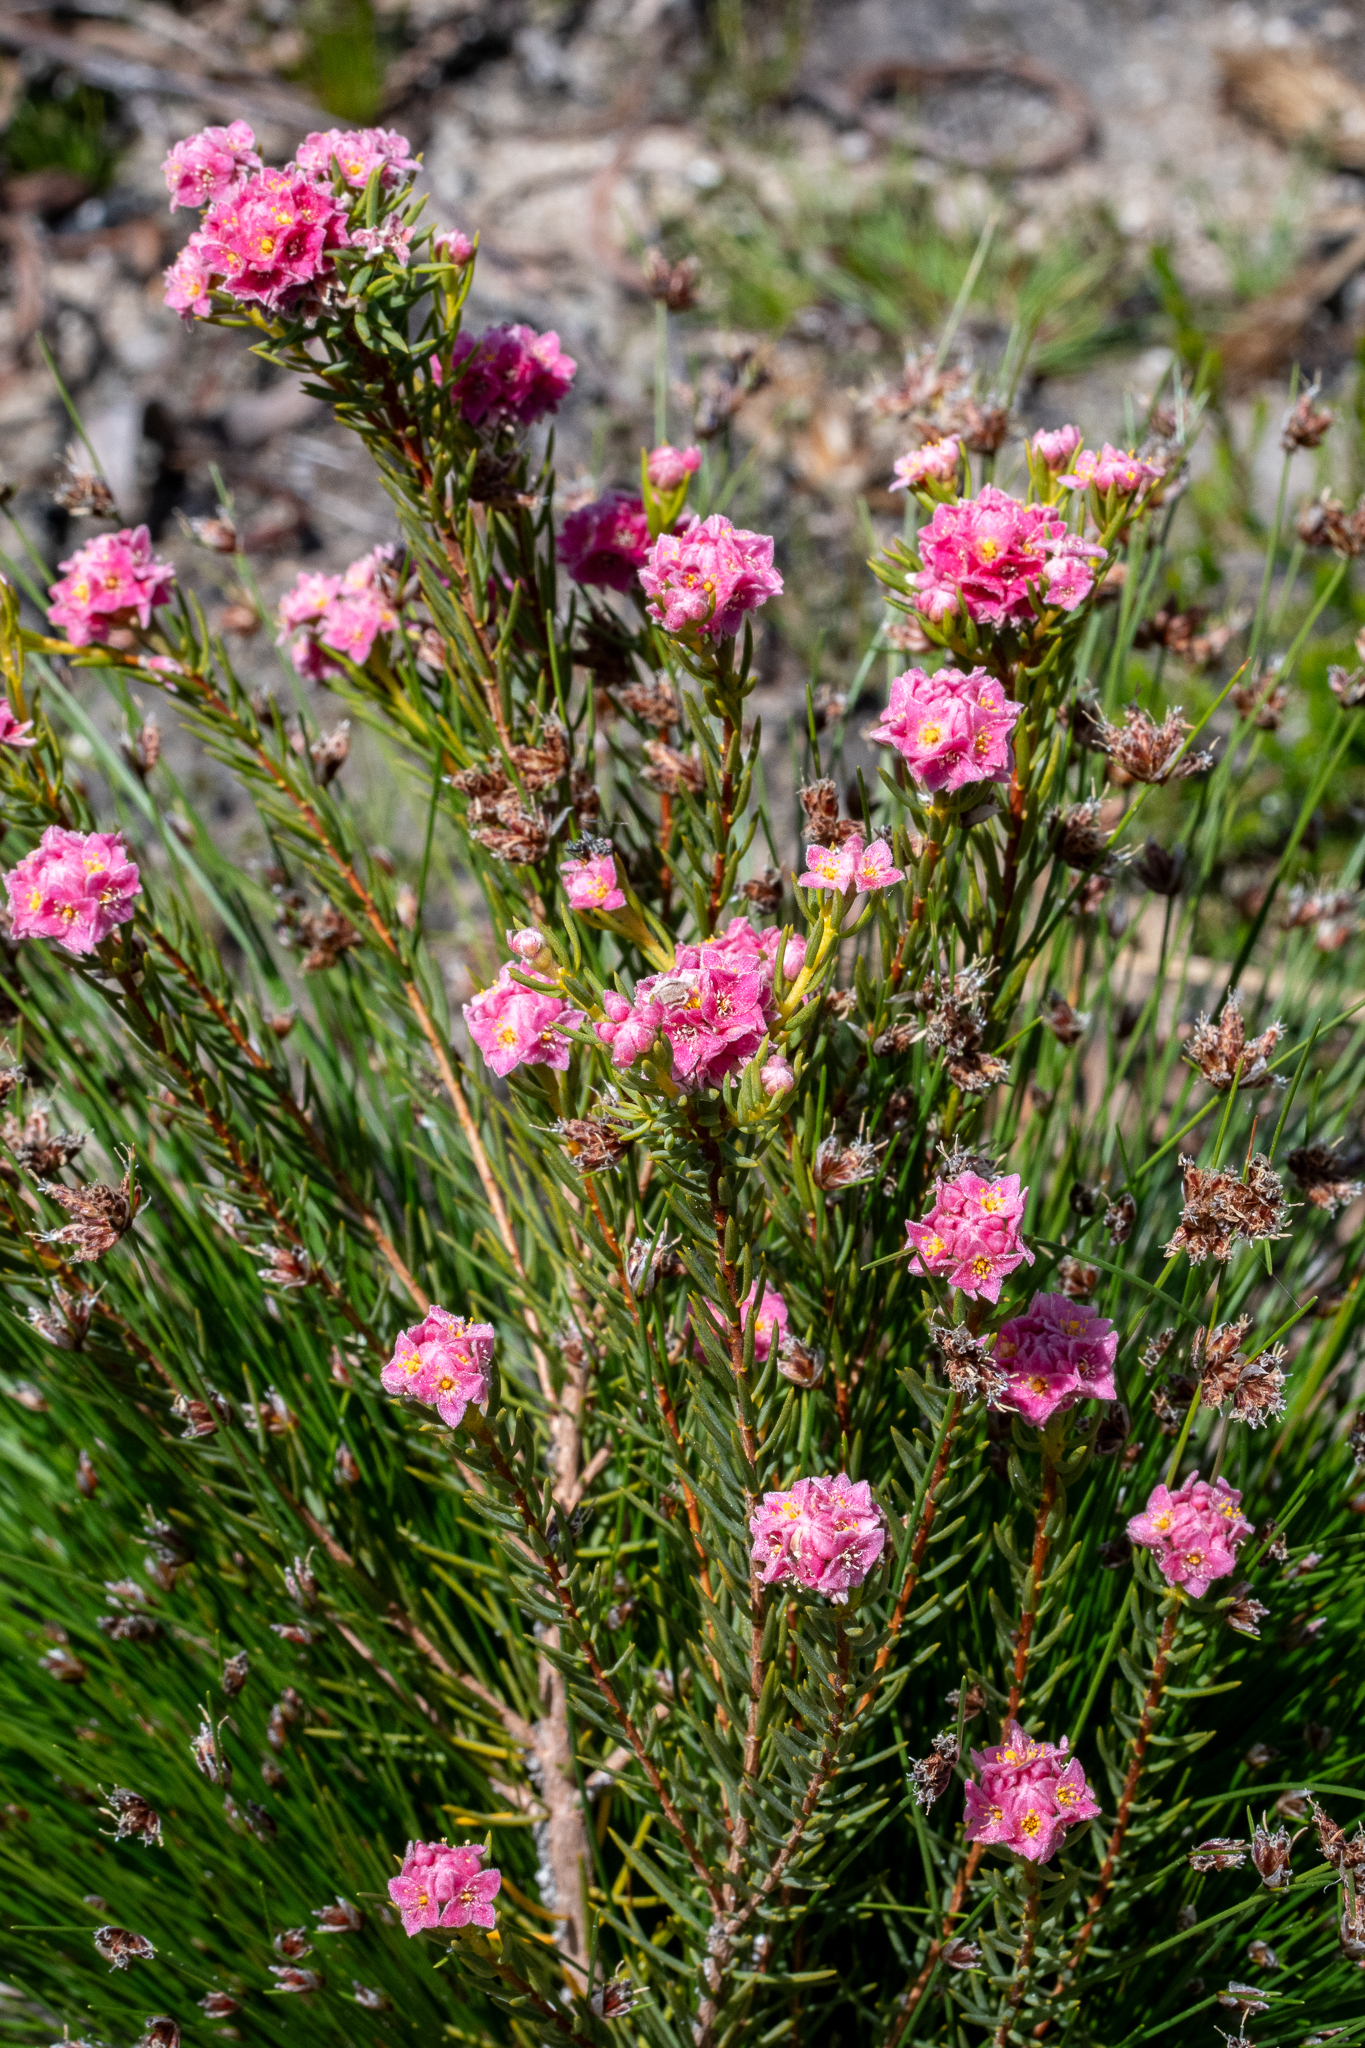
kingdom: Plantae
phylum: Tracheophyta
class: Magnoliopsida
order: Malvales
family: Thymelaeaceae
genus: Lachnaea
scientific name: Lachnaea densiflora
